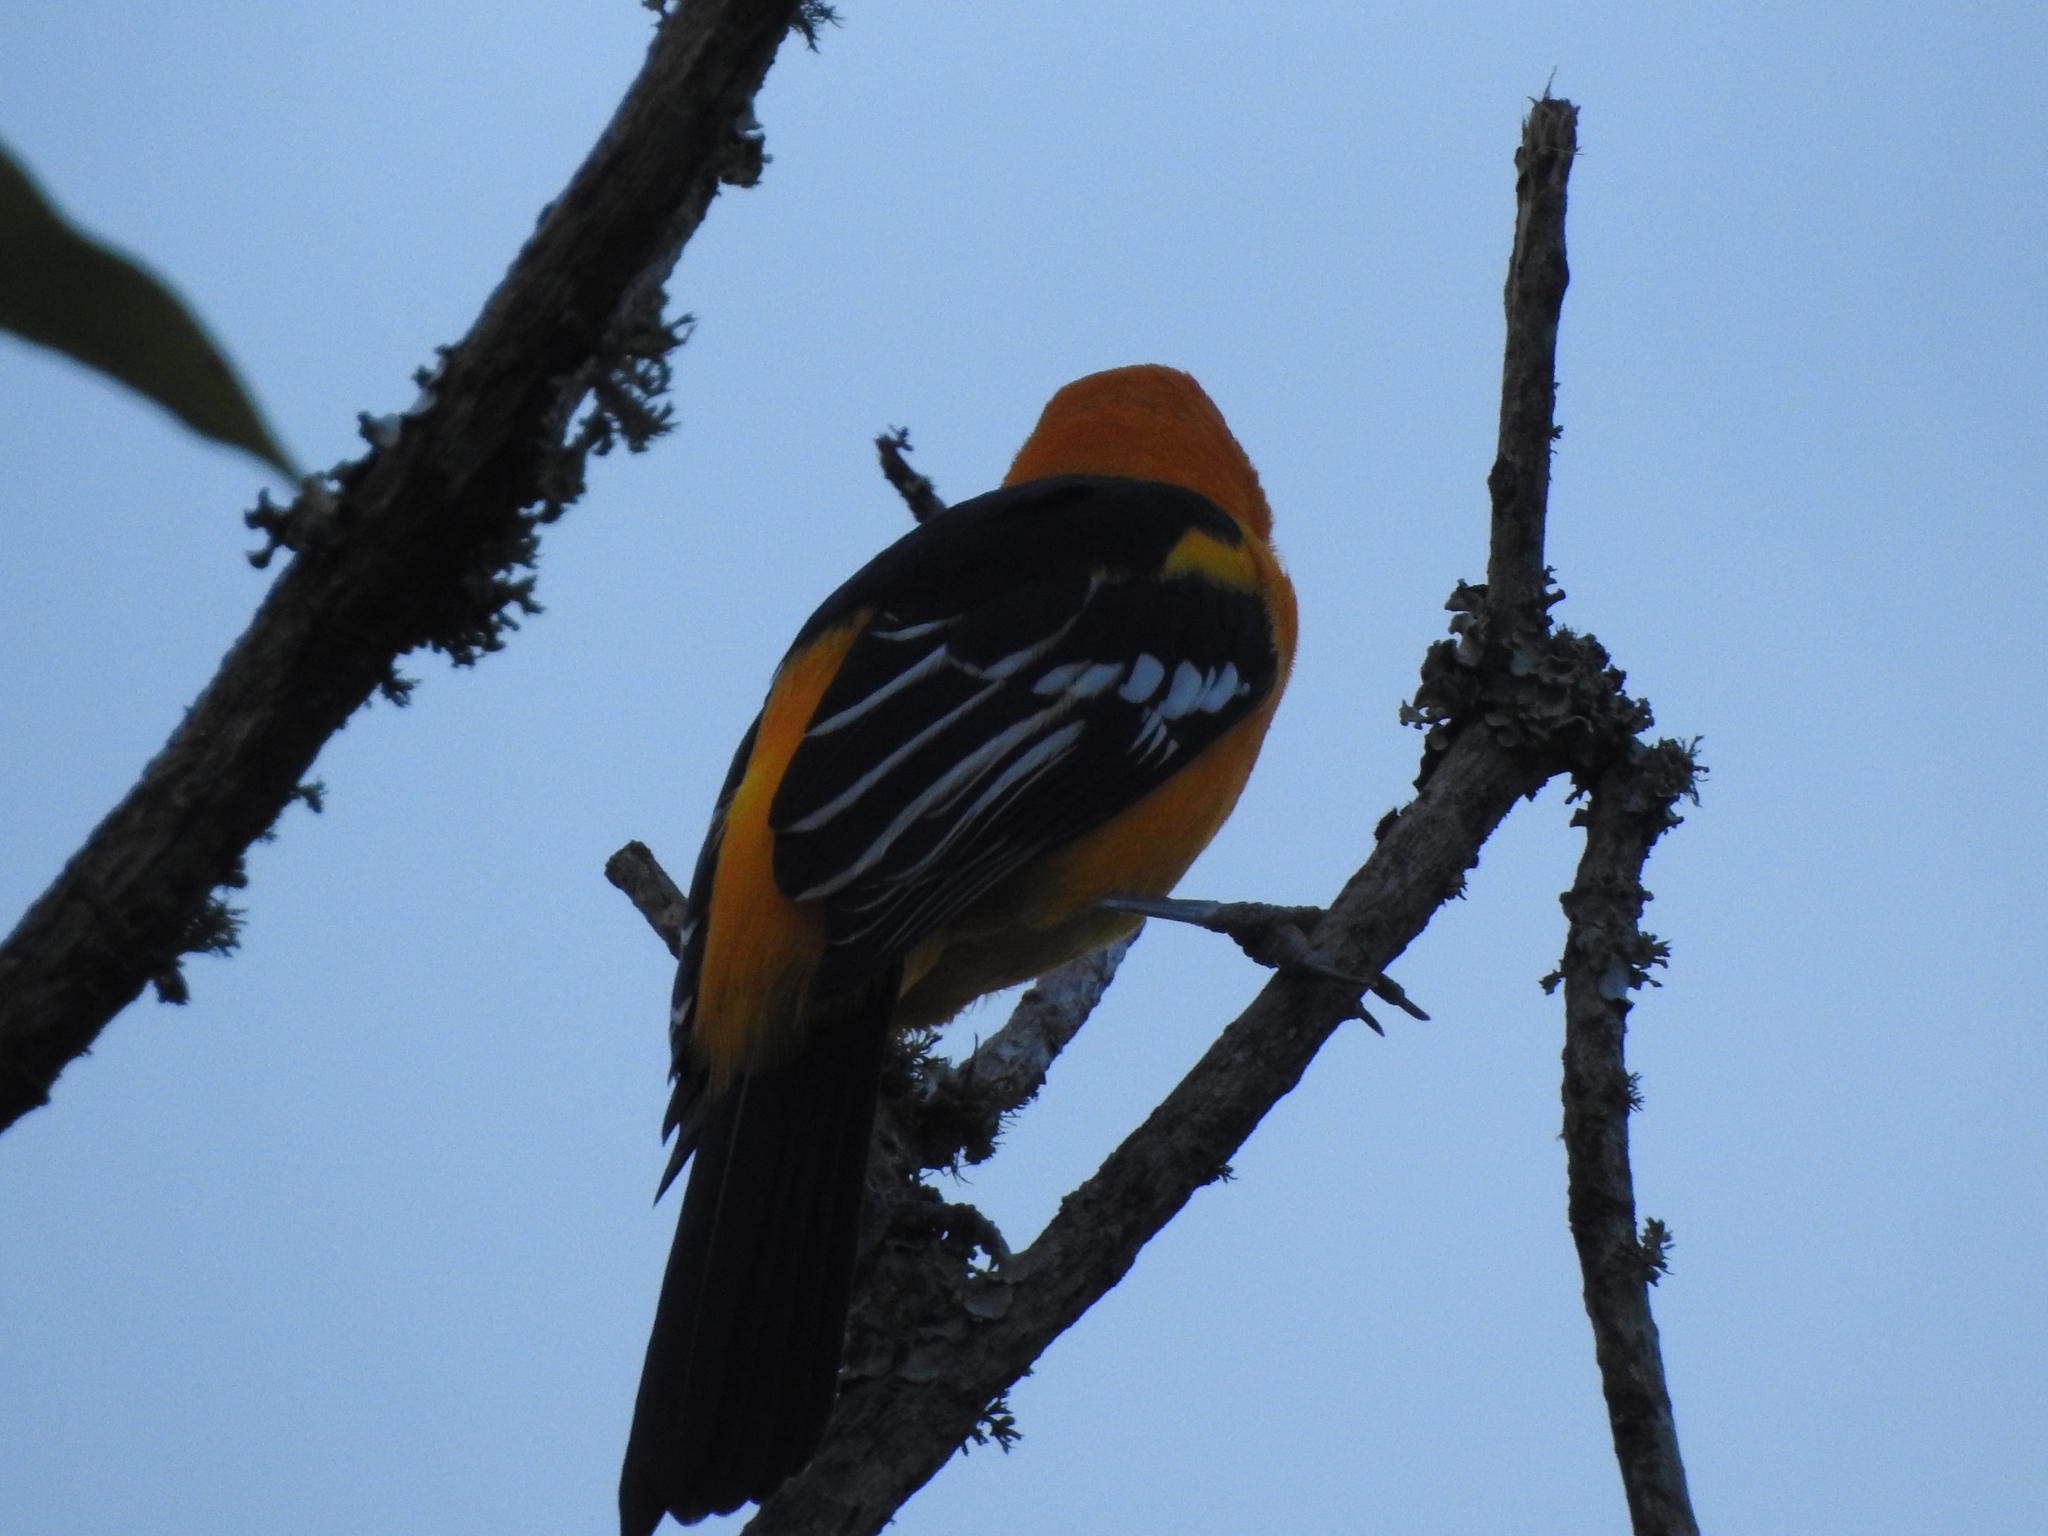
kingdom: Animalia
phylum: Chordata
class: Aves
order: Passeriformes
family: Icteridae
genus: Icterus
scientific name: Icterus gularis
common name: Altamira oriole
